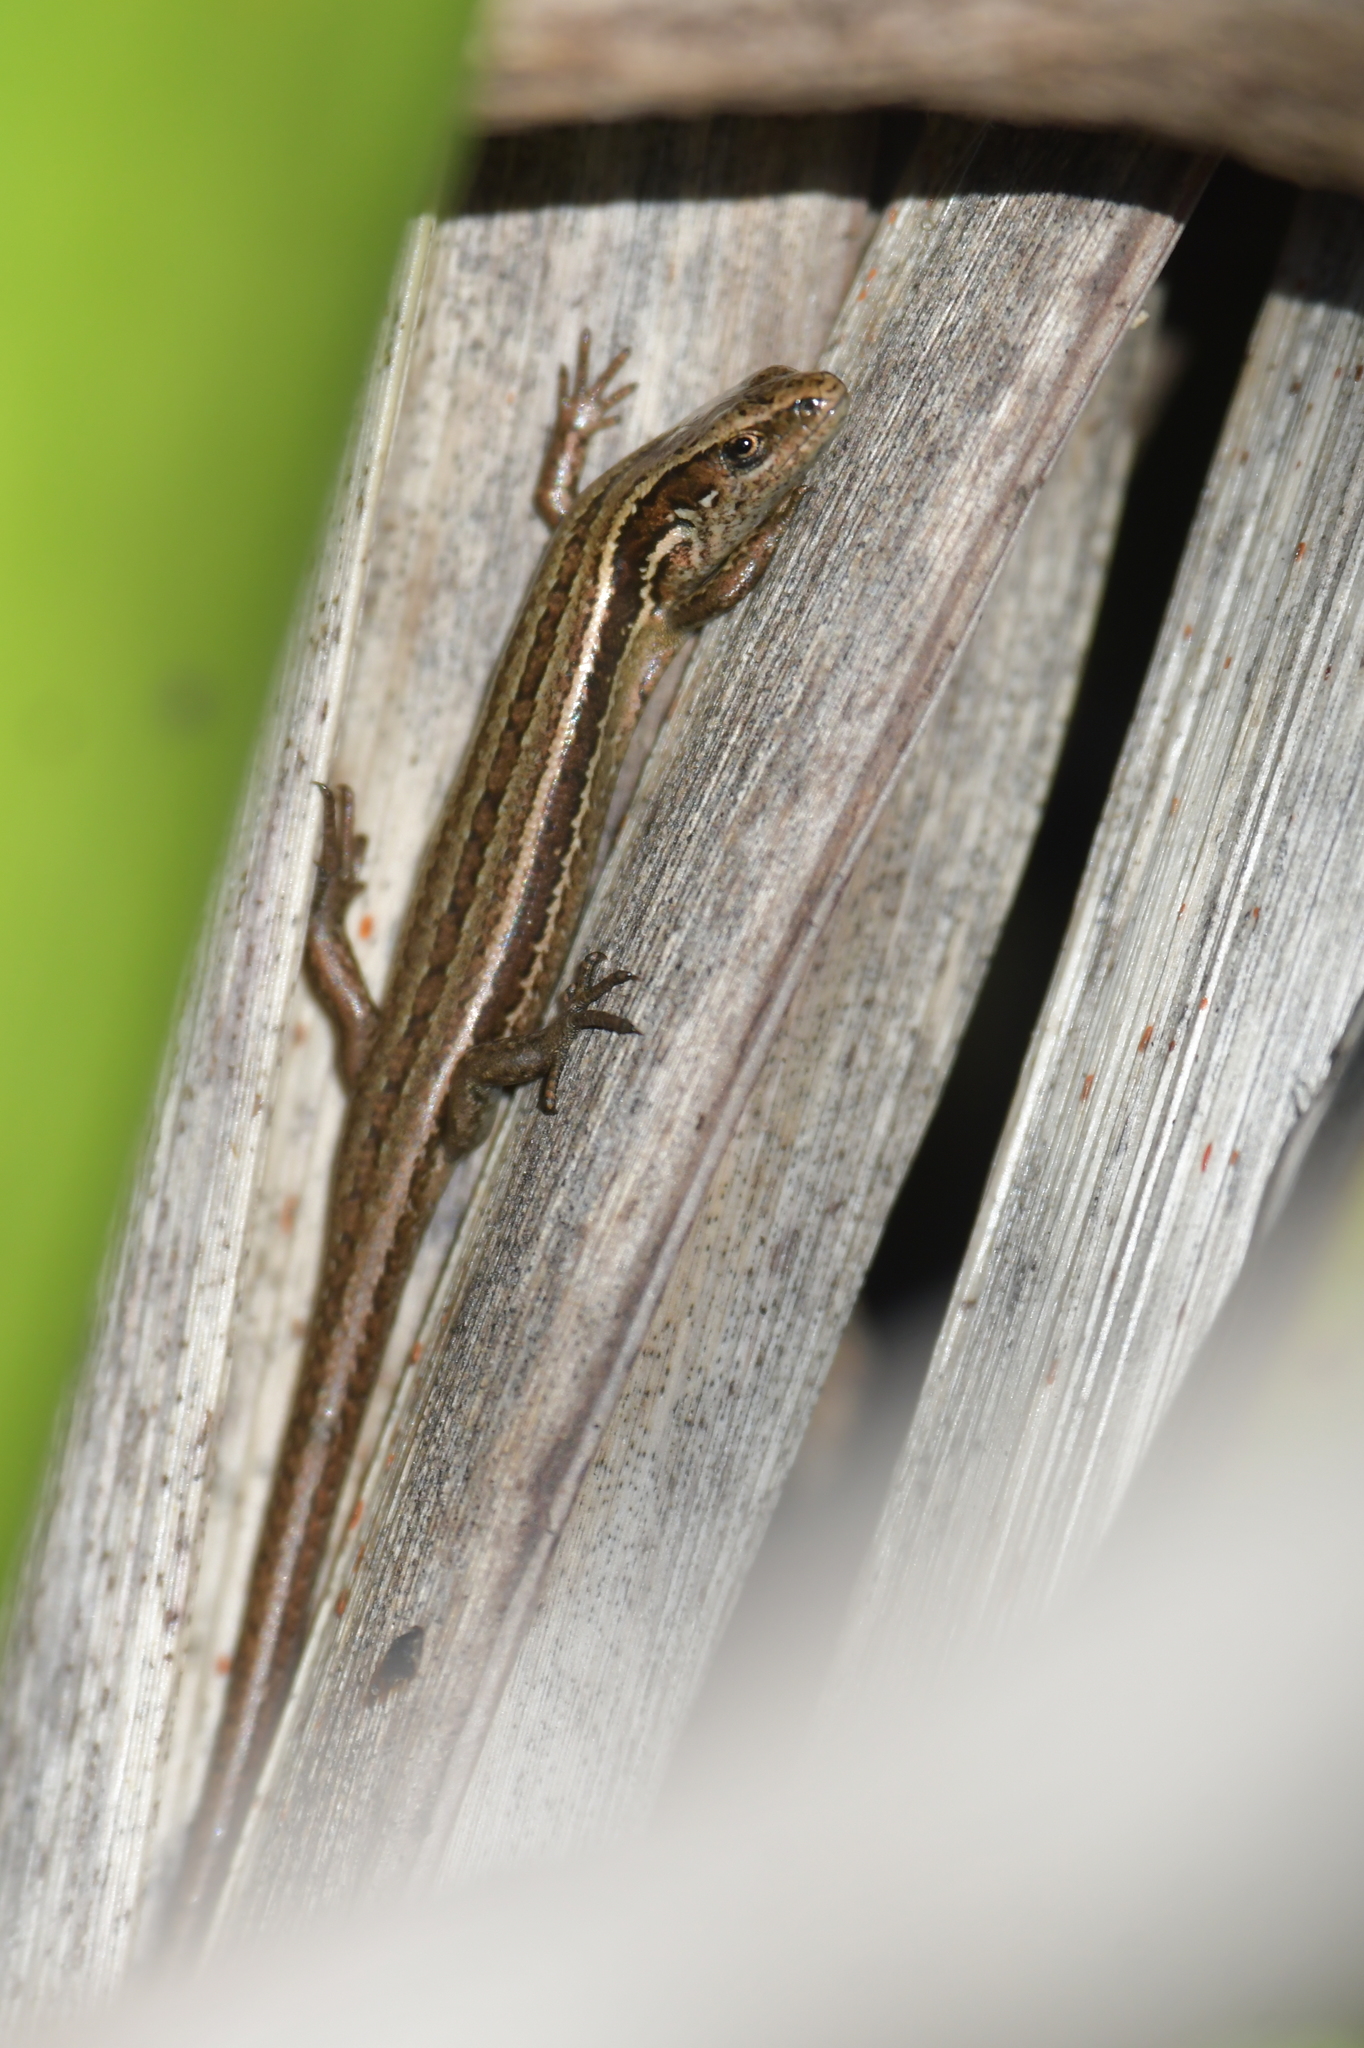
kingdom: Animalia
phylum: Chordata
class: Squamata
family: Scincidae
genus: Oligosoma
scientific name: Oligosoma polychroma
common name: Common new zealand skink
